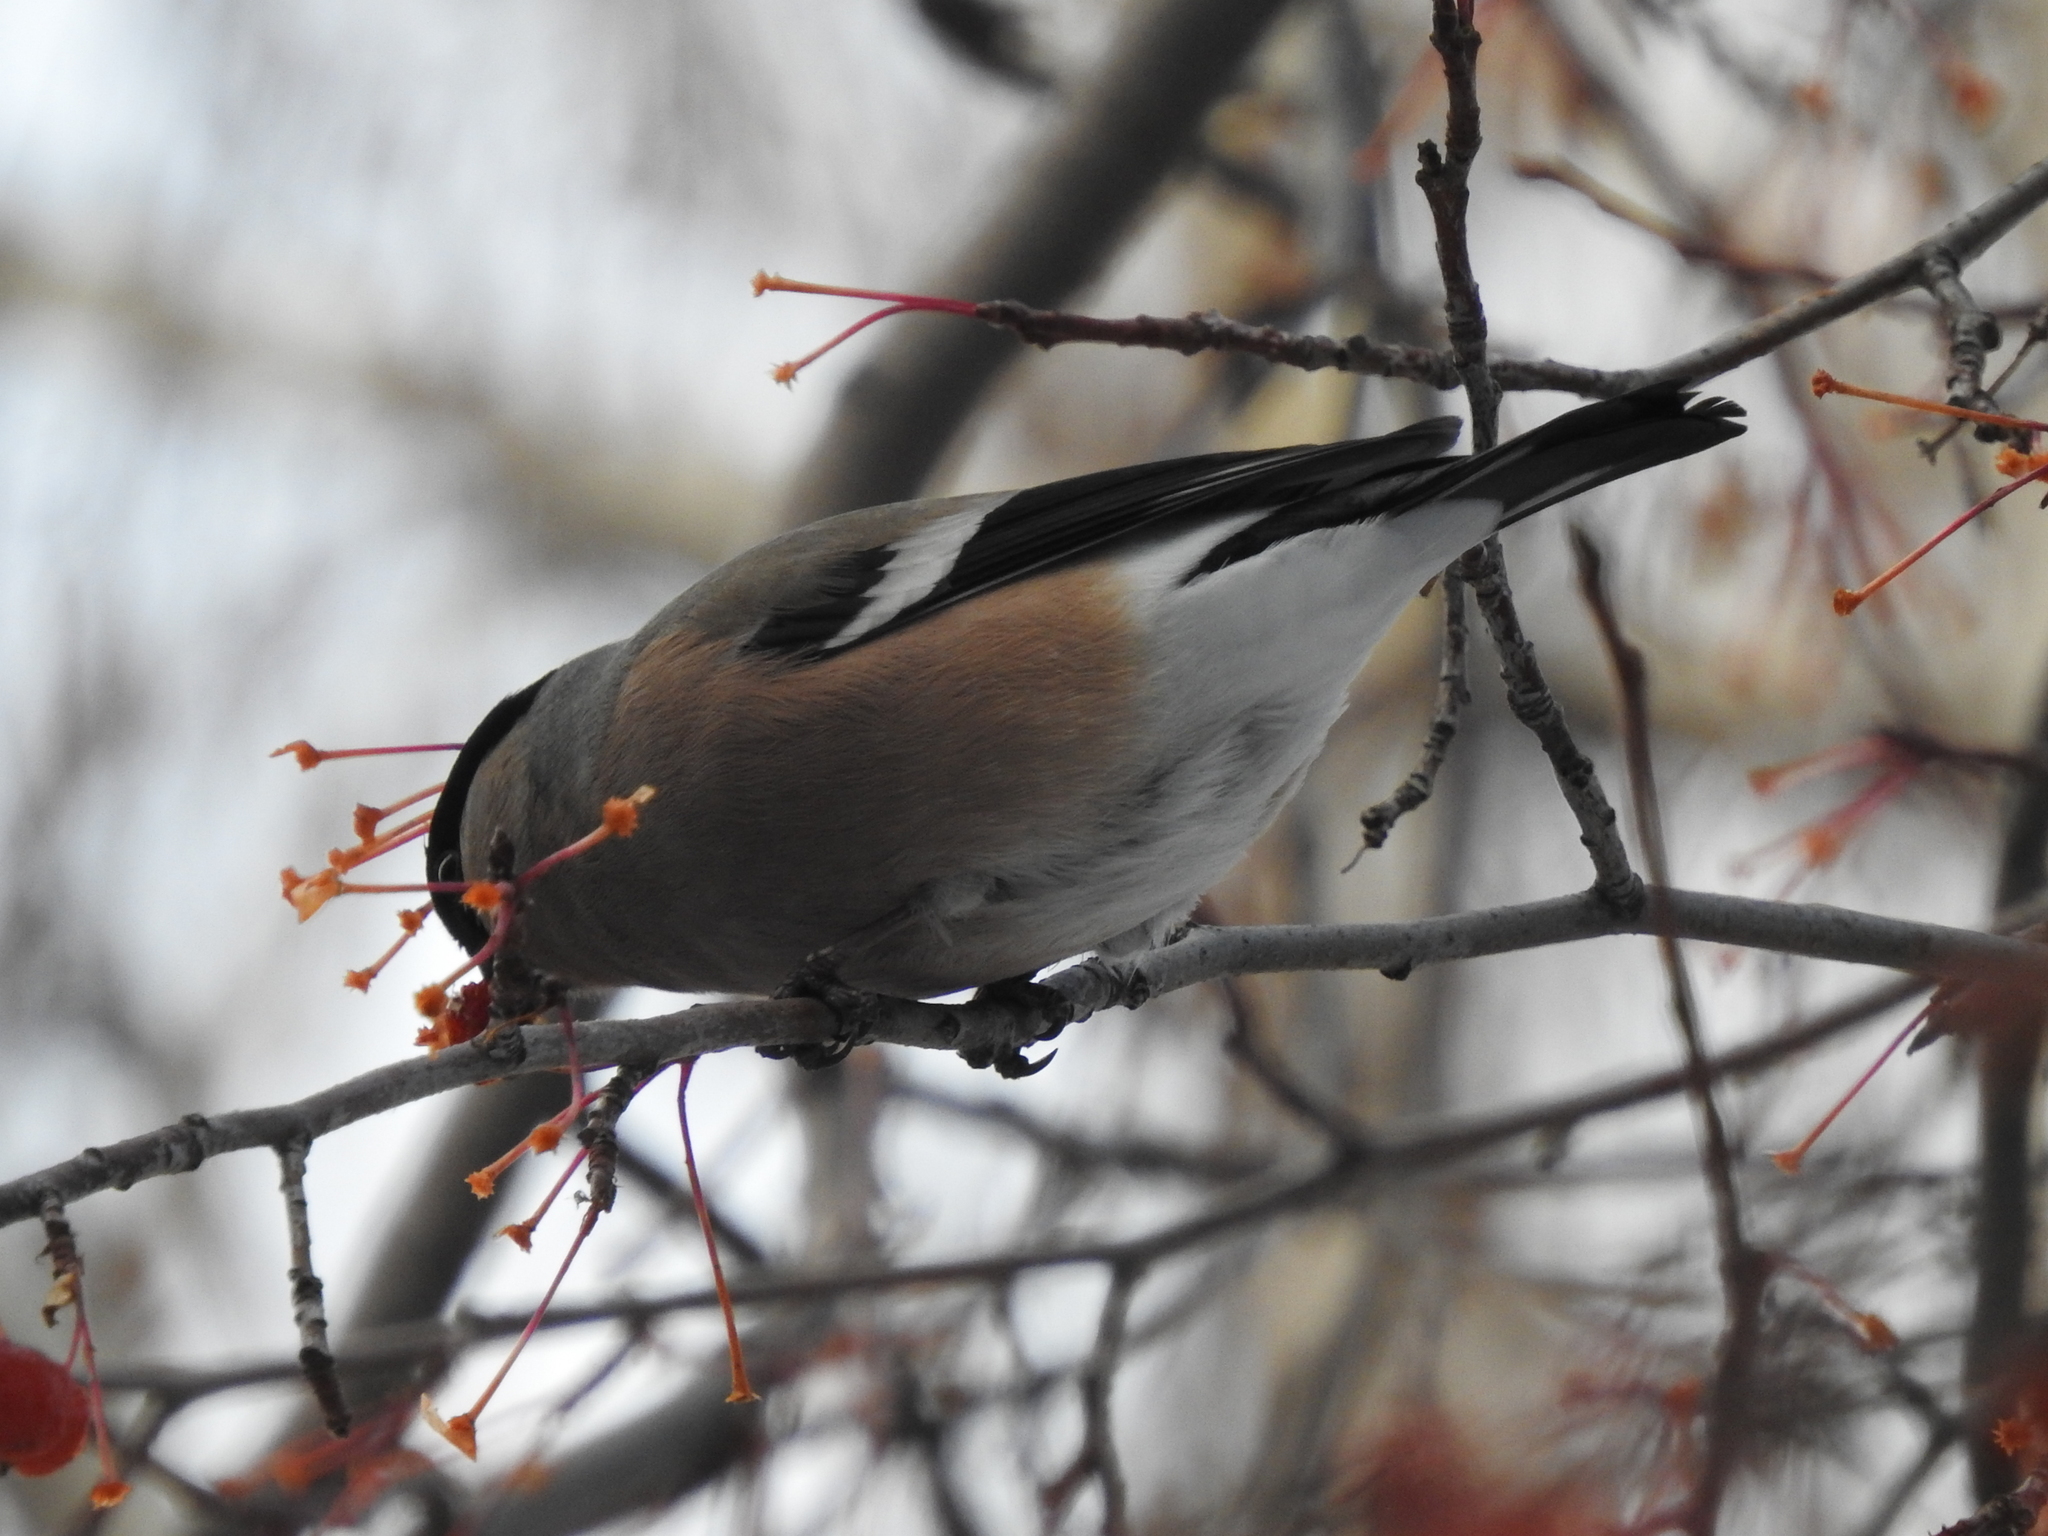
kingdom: Animalia
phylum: Chordata
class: Aves
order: Passeriformes
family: Fringillidae
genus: Pyrrhula
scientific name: Pyrrhula pyrrhula
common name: Eurasian bullfinch
